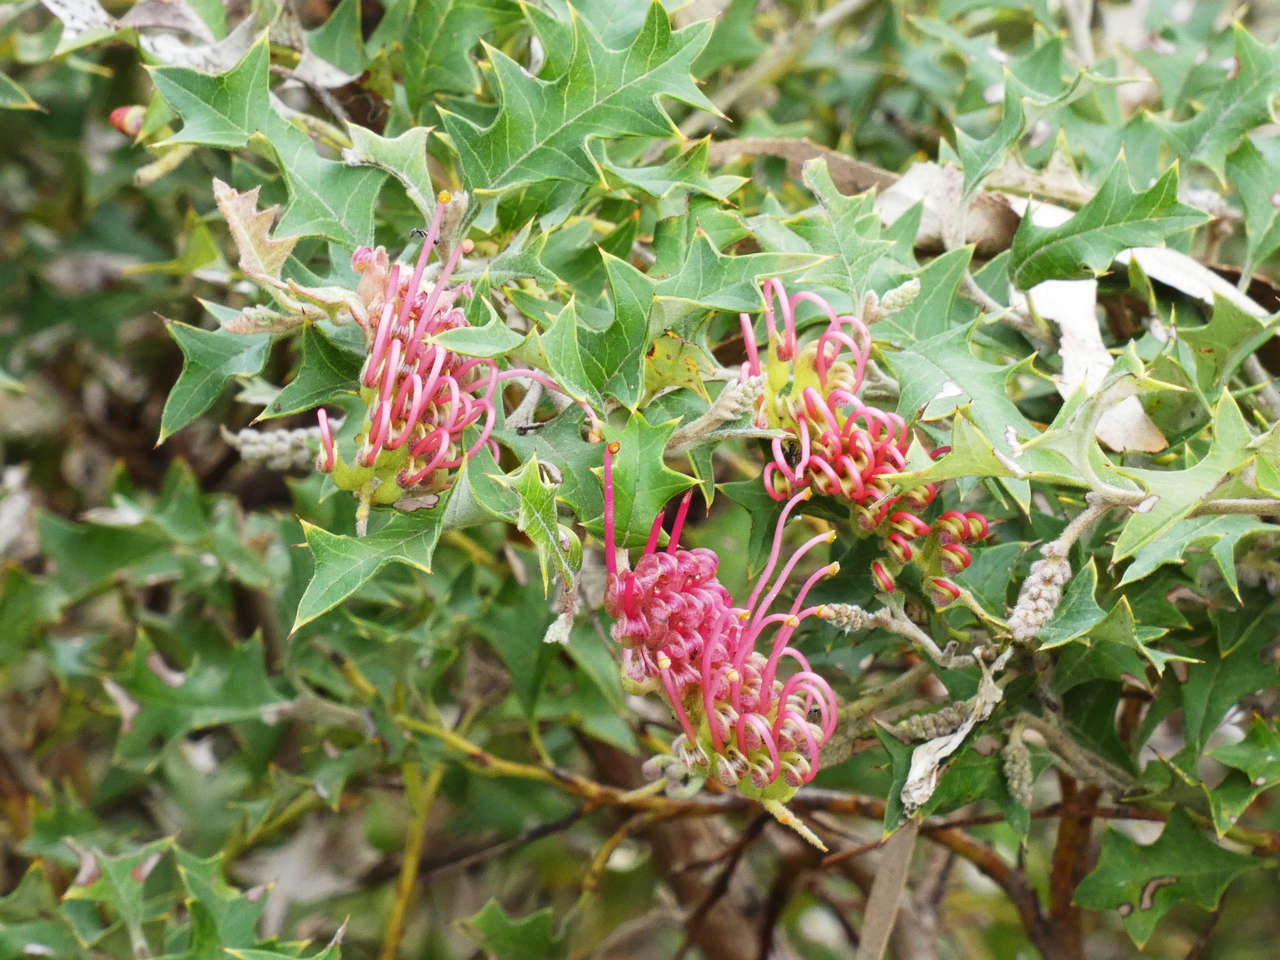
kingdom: Plantae
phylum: Tracheophyta
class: Magnoliopsida
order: Proteales
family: Proteaceae
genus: Grevillea
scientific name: Grevillea aquifolium
